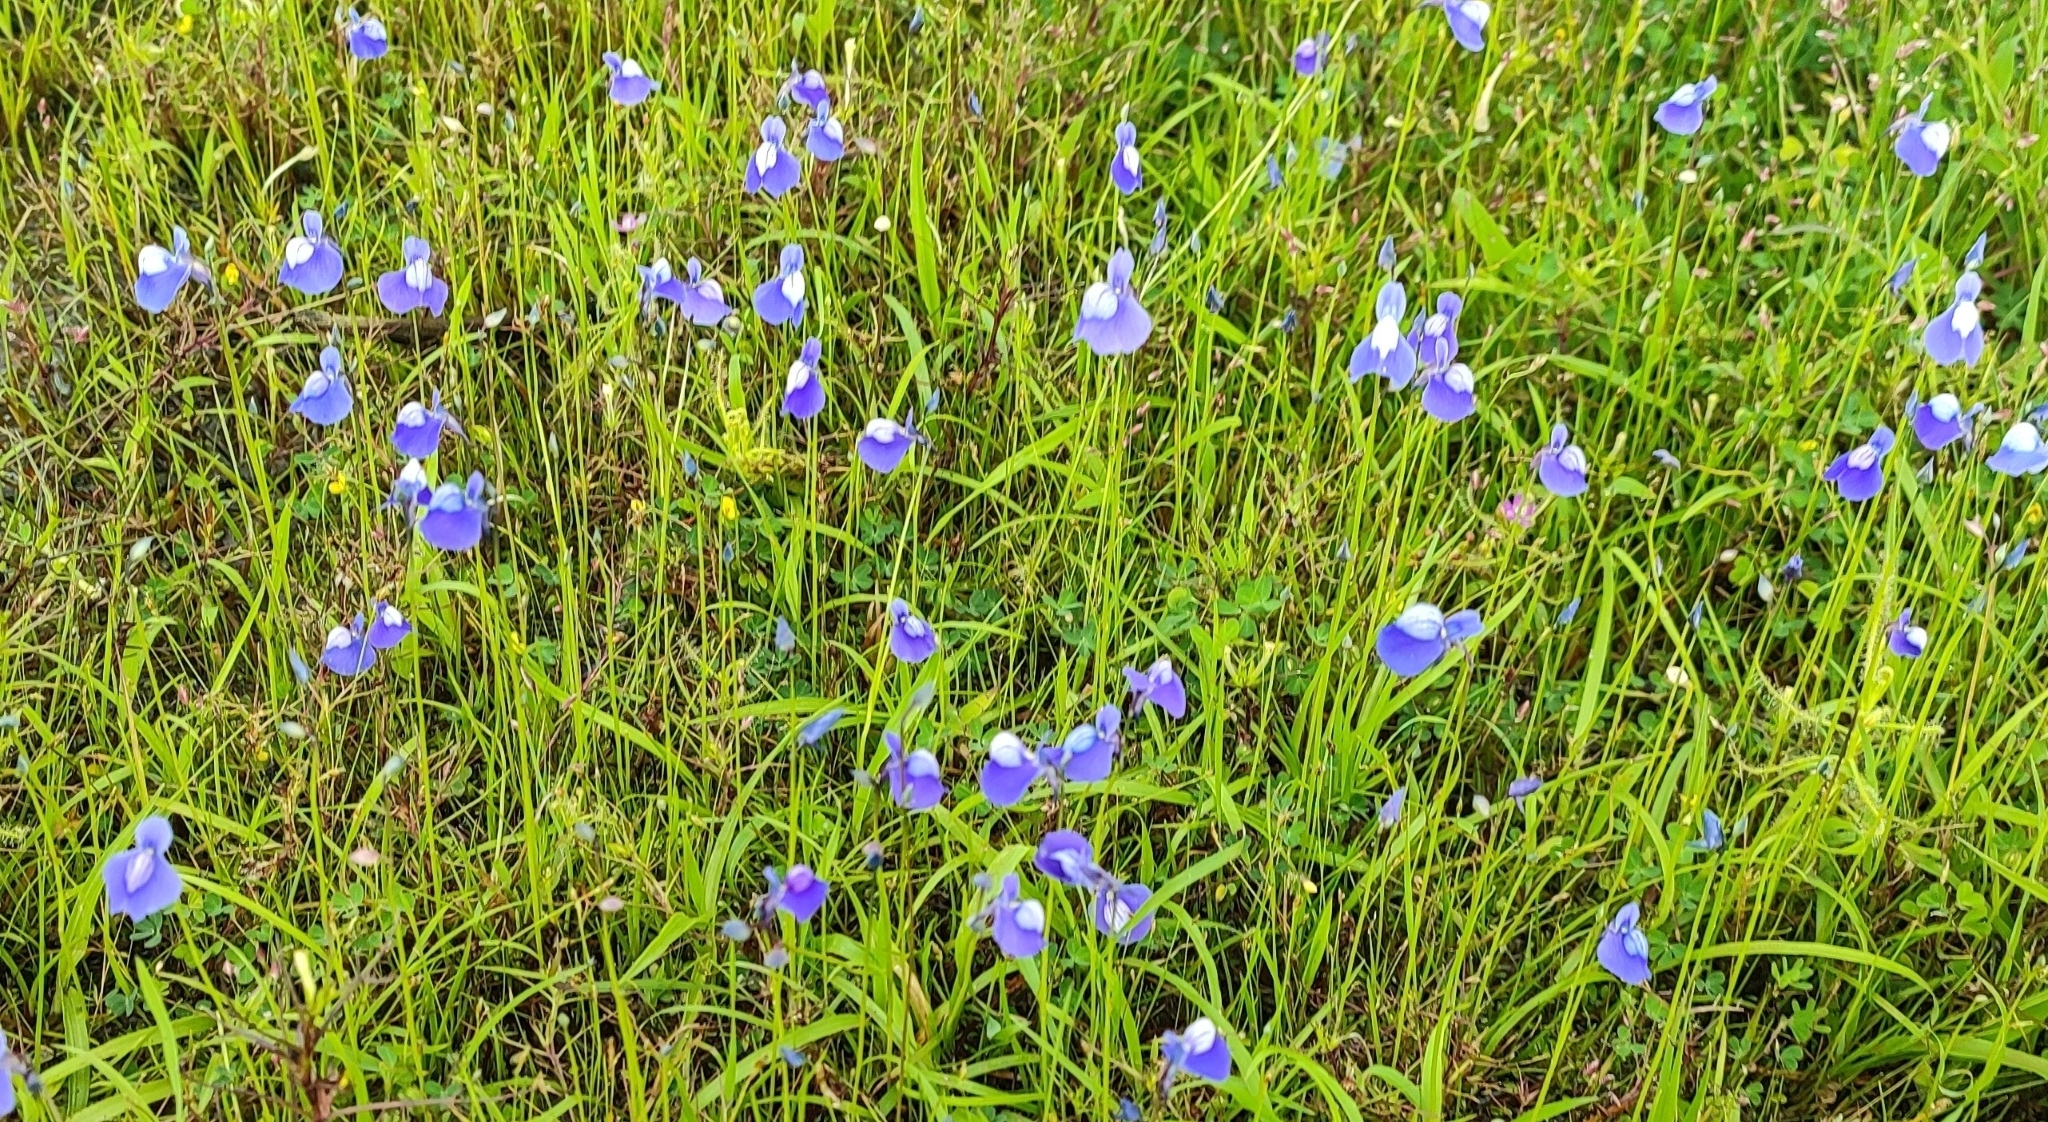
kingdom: Plantae
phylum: Tracheophyta
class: Magnoliopsida
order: Lamiales
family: Lentibulariaceae
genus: Utricularia
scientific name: Utricularia reticulata
